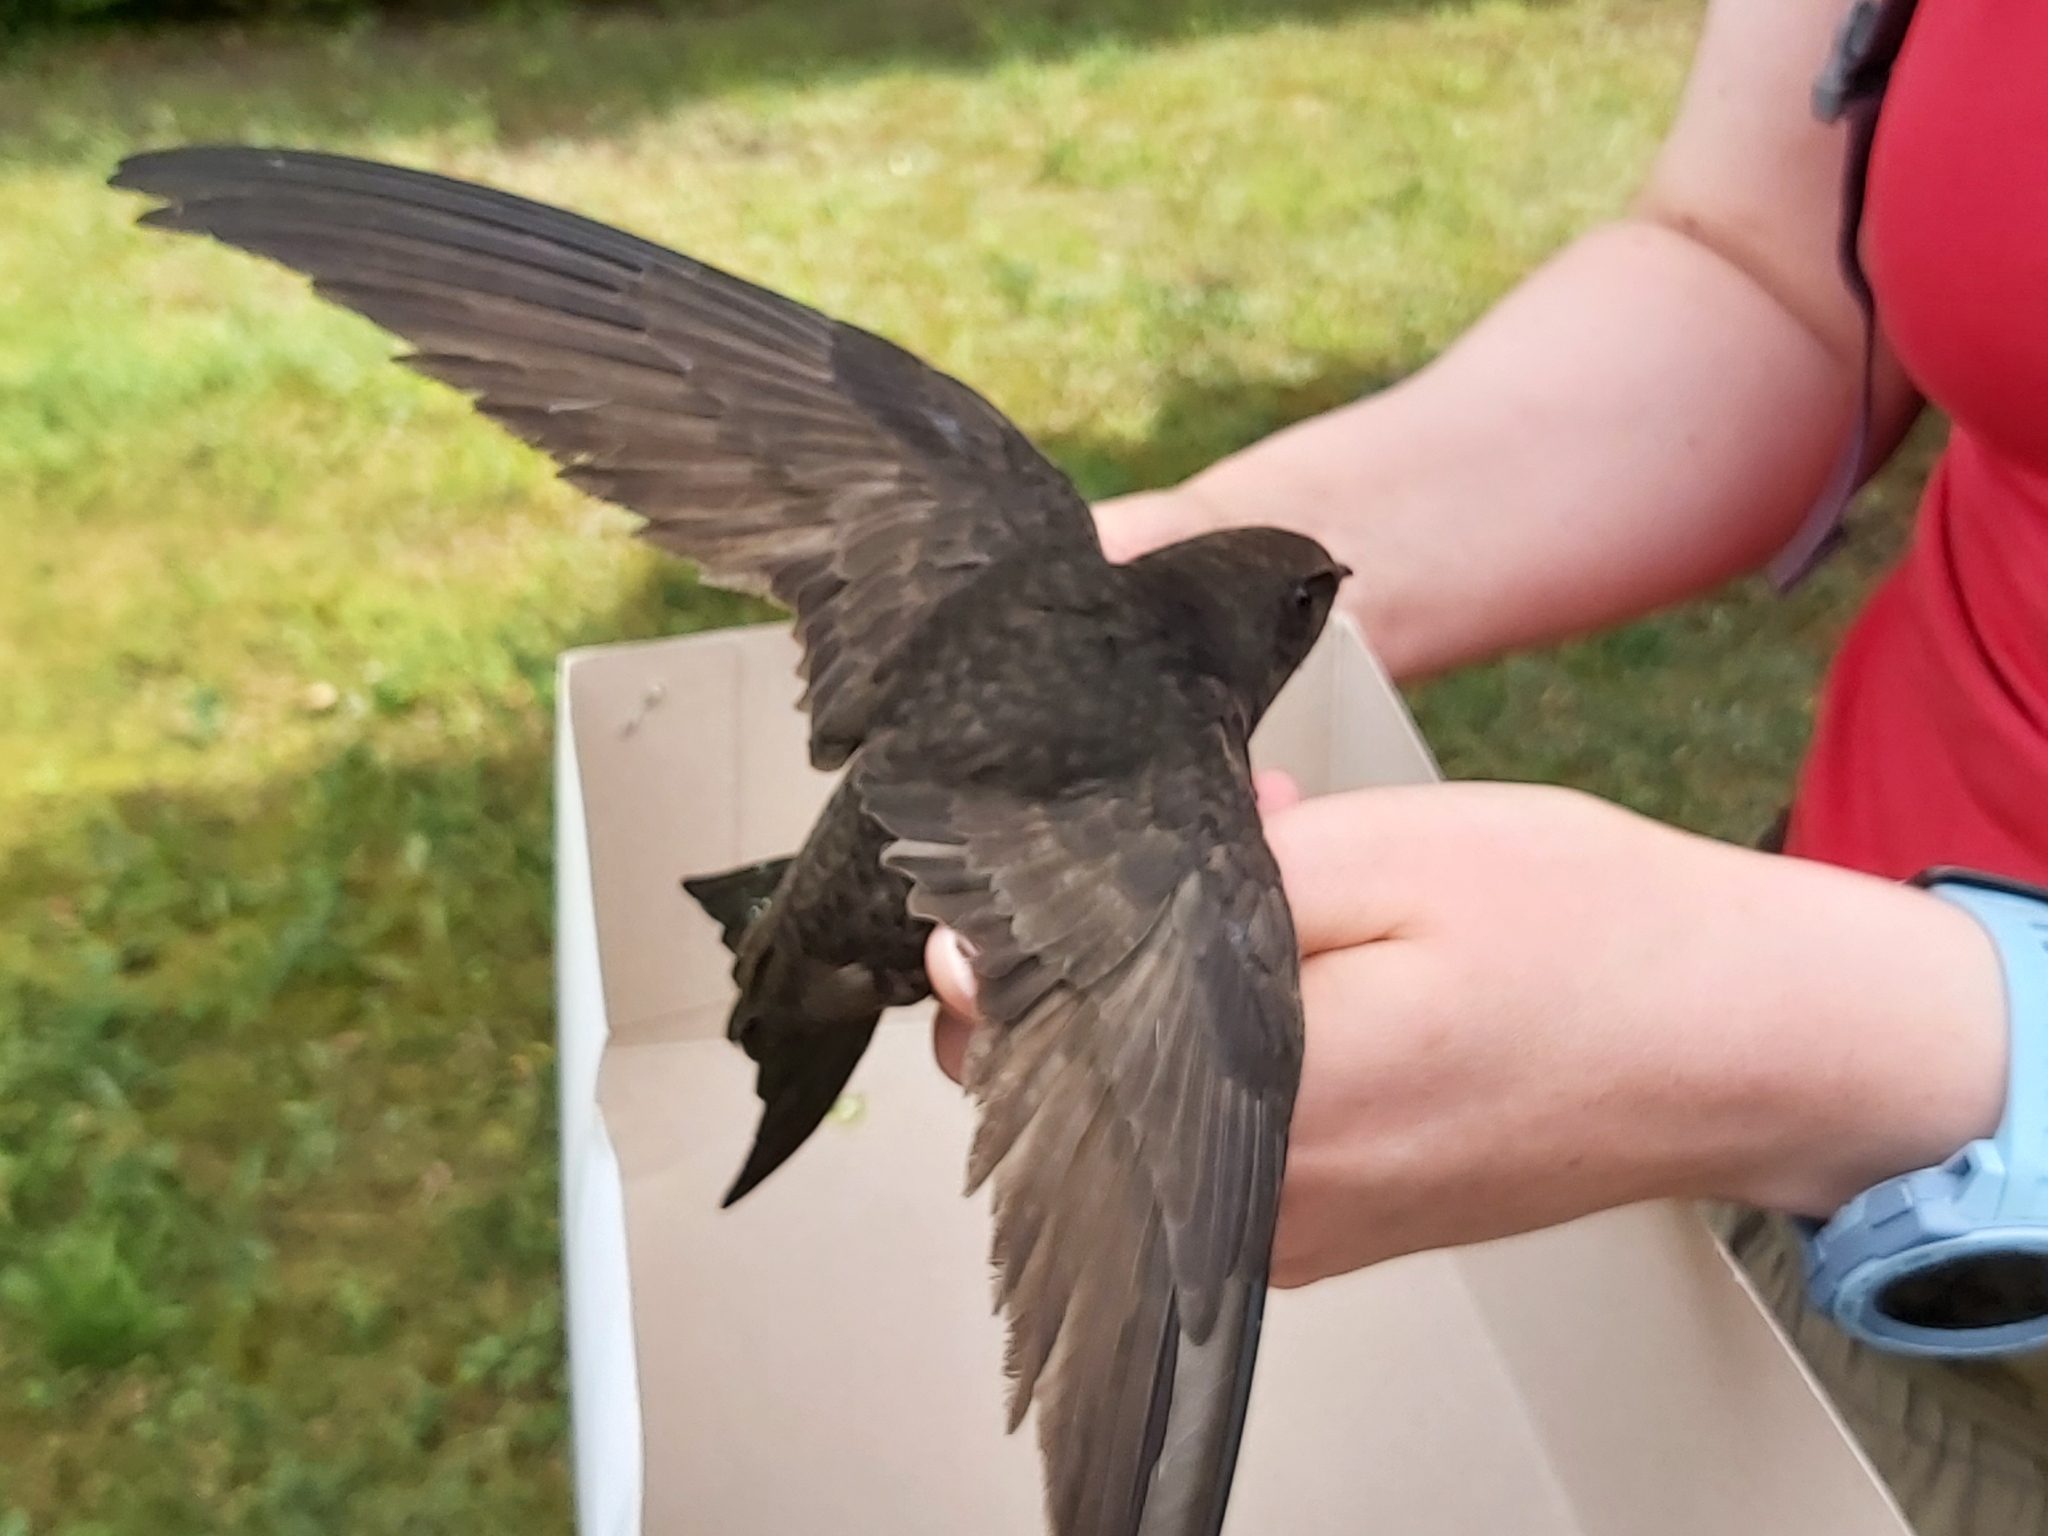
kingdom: Animalia
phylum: Chordata
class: Aves
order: Apodiformes
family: Apodidae
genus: Apus
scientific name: Apus apus
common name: Common swift
